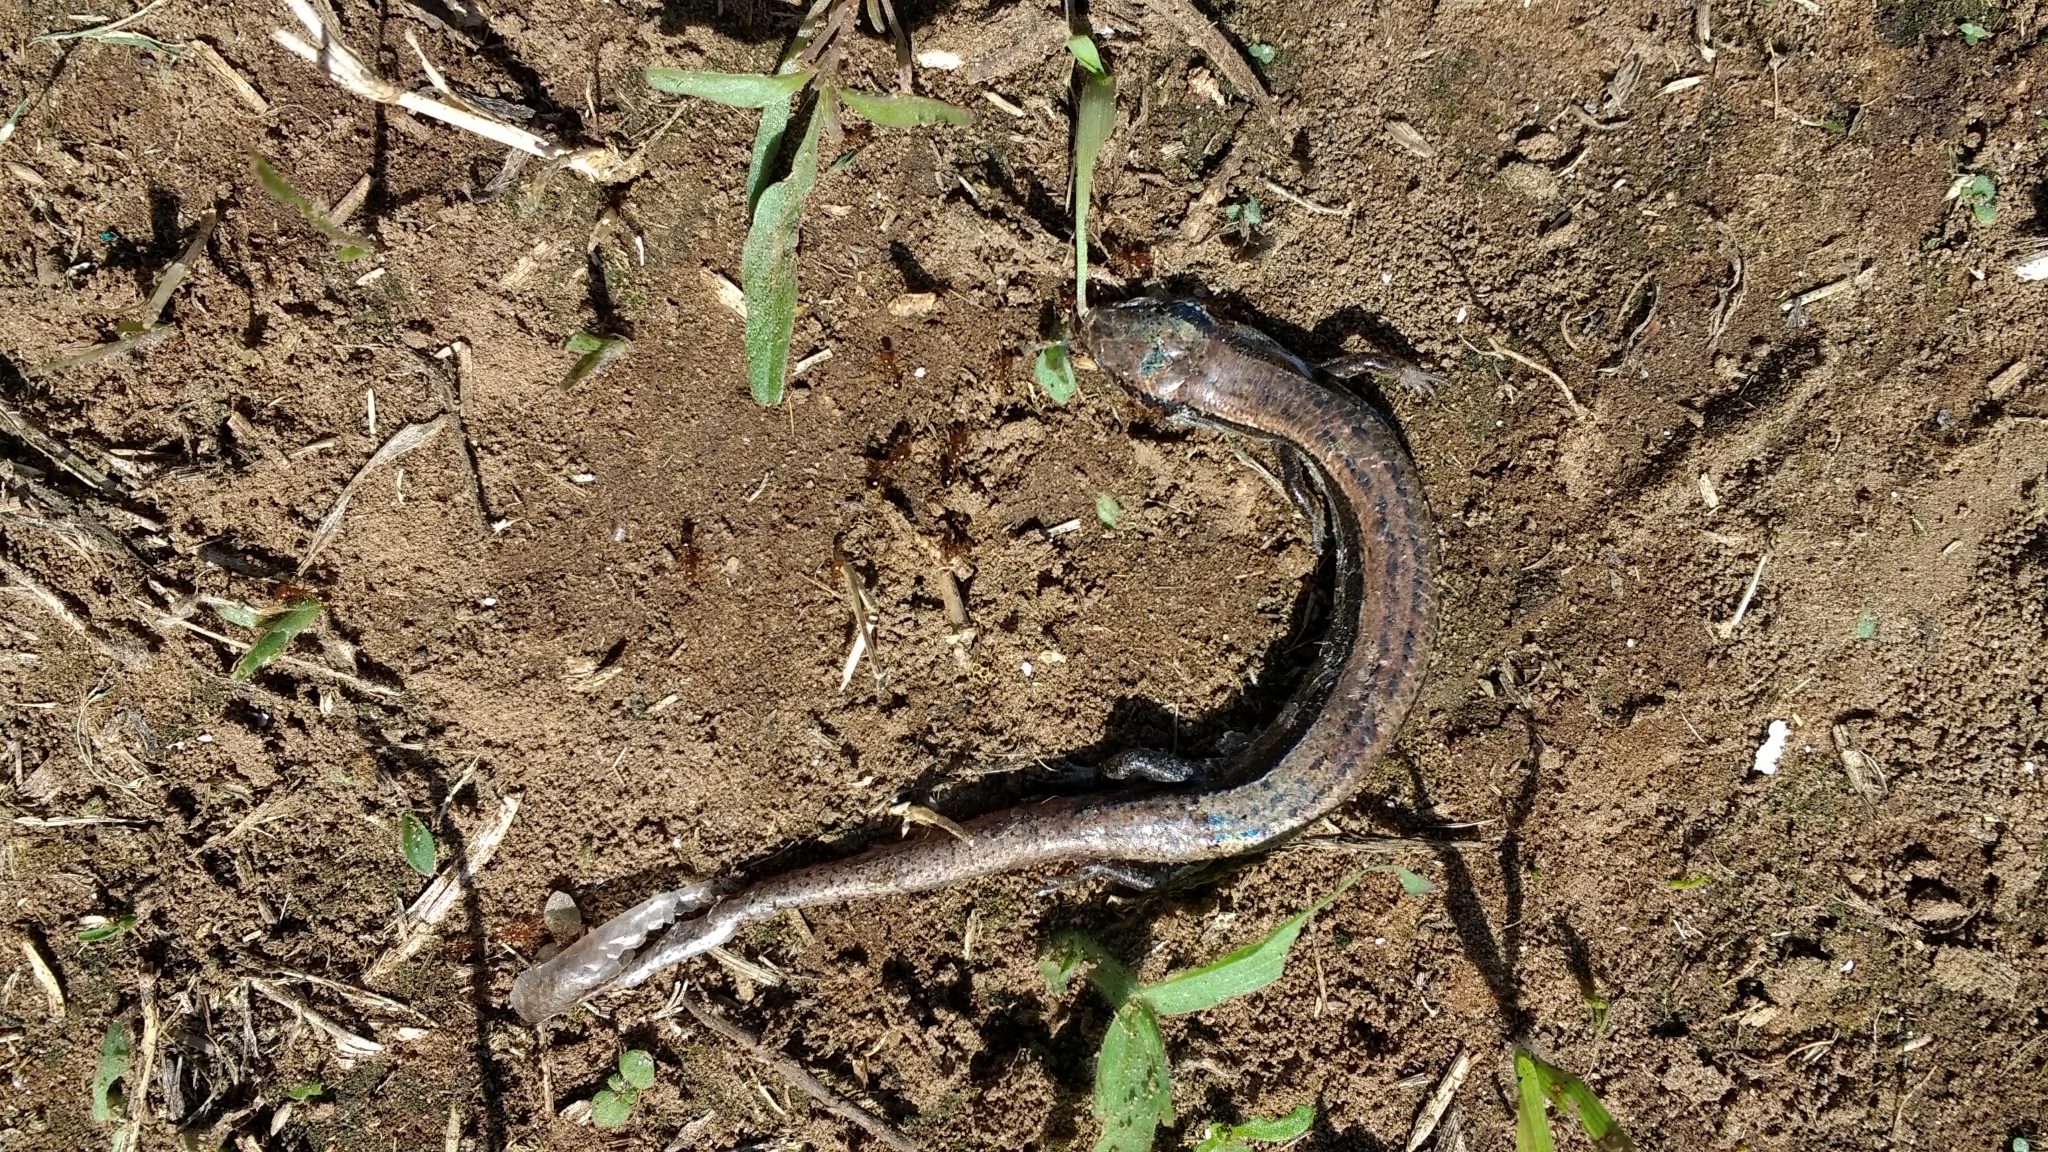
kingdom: Animalia
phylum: Chordata
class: Squamata
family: Scincidae
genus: Scincella
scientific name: Scincella lateralis
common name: Ground skink
